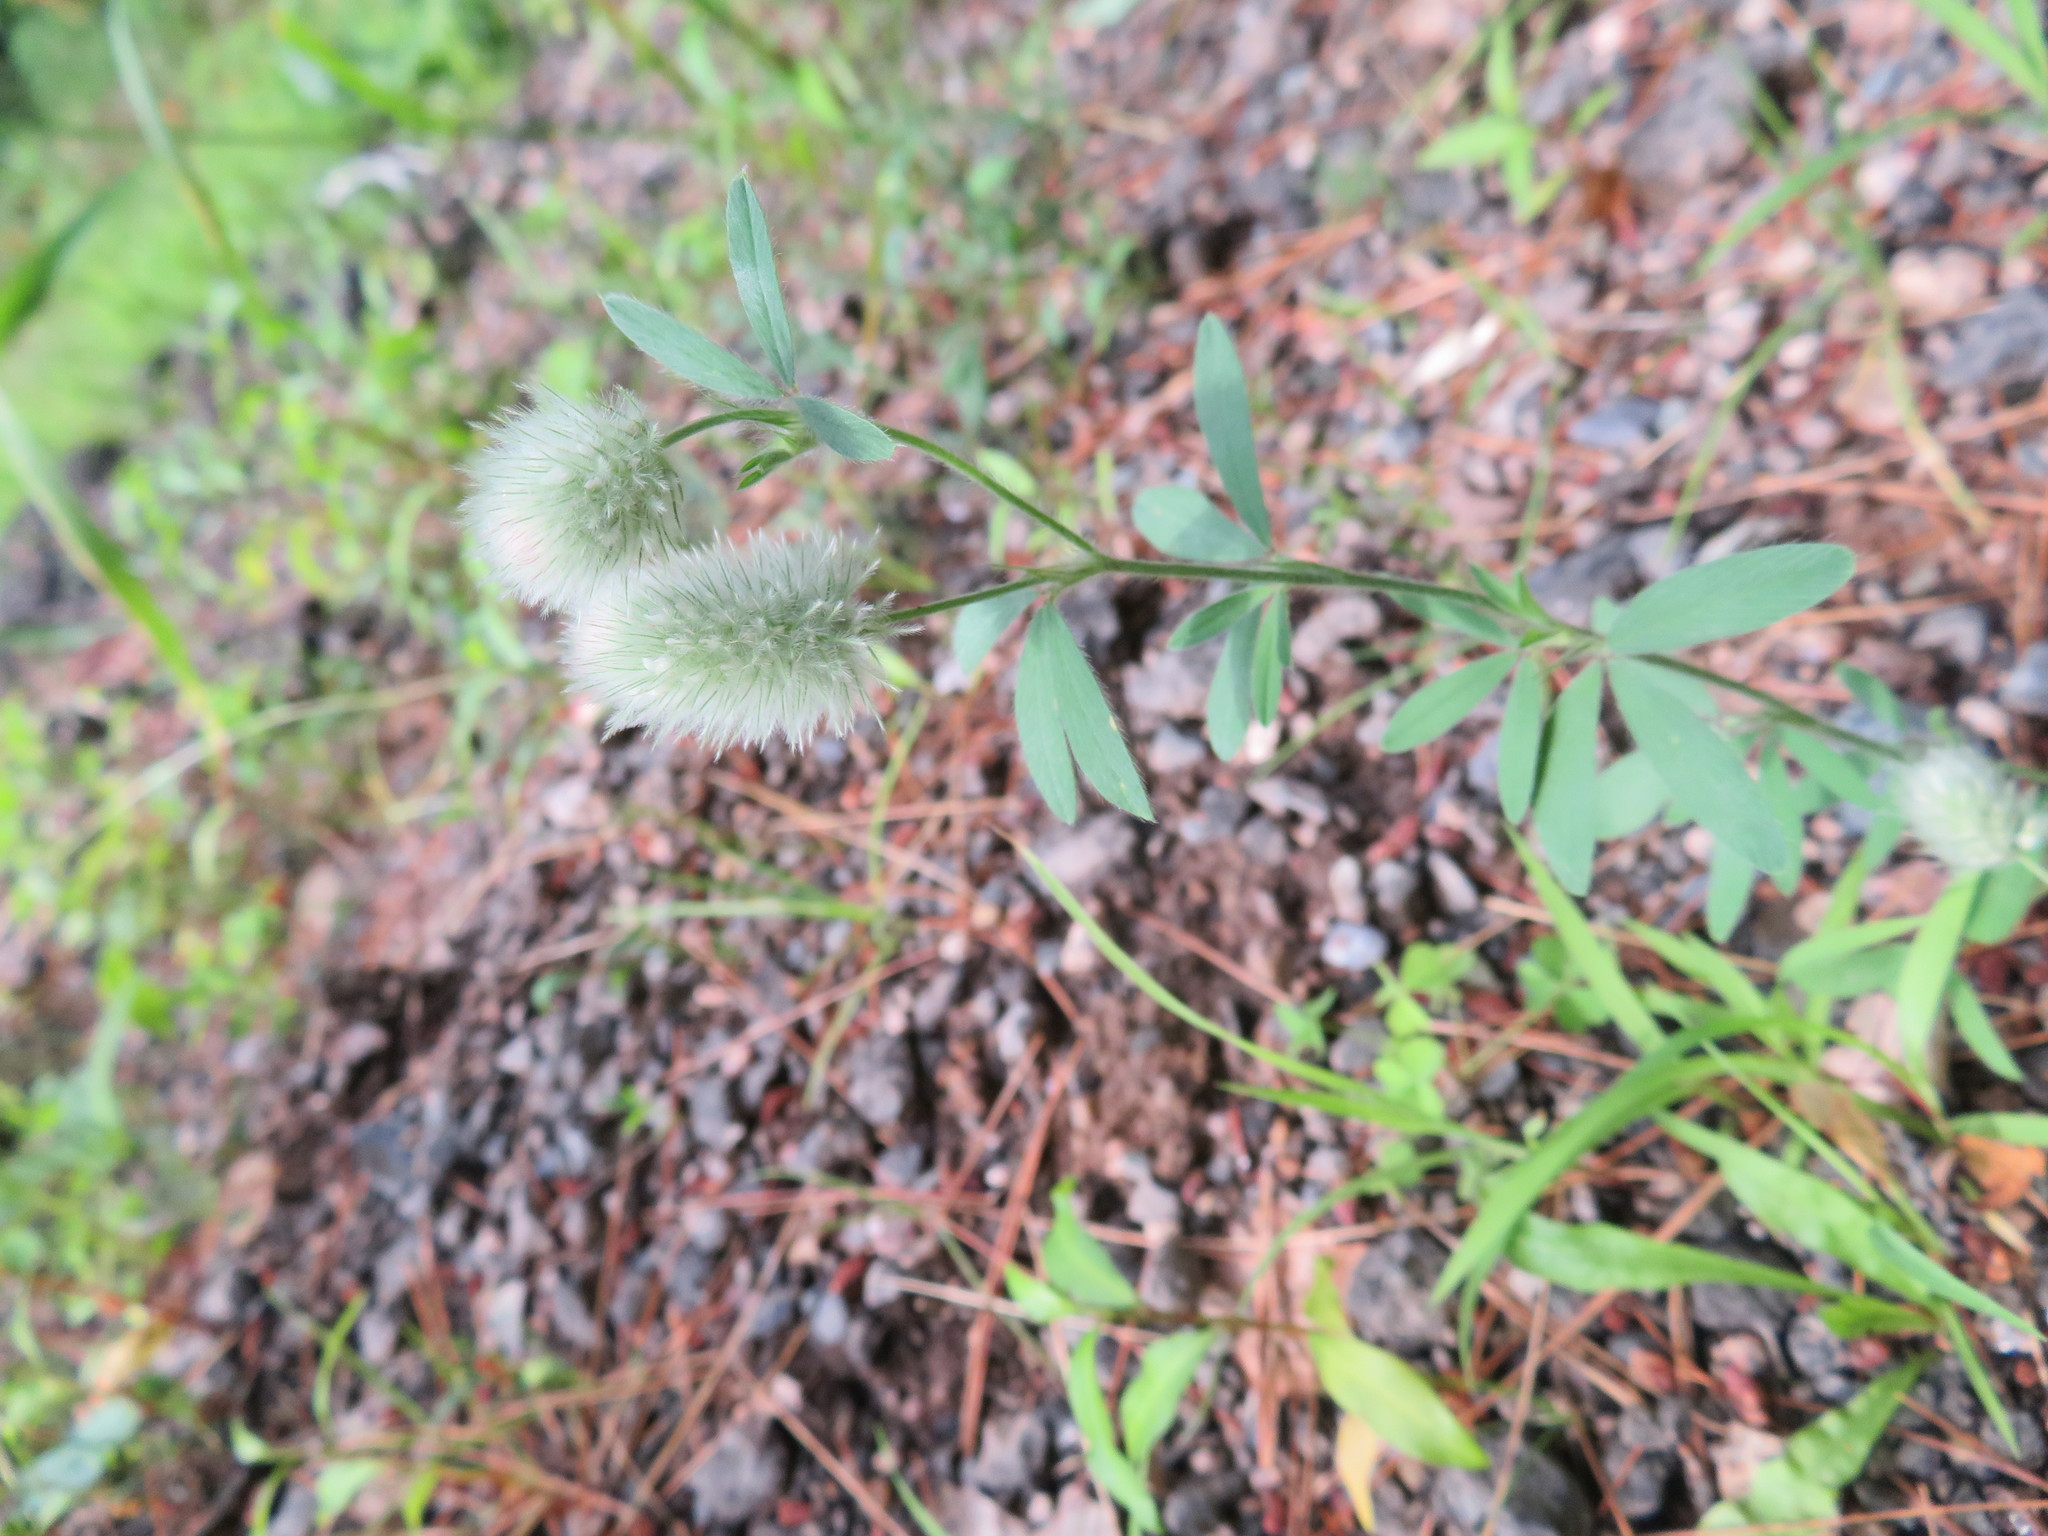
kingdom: Plantae
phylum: Tracheophyta
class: Magnoliopsida
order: Fabales
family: Fabaceae
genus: Trifolium
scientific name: Trifolium arvense
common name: Hare's-foot clover
